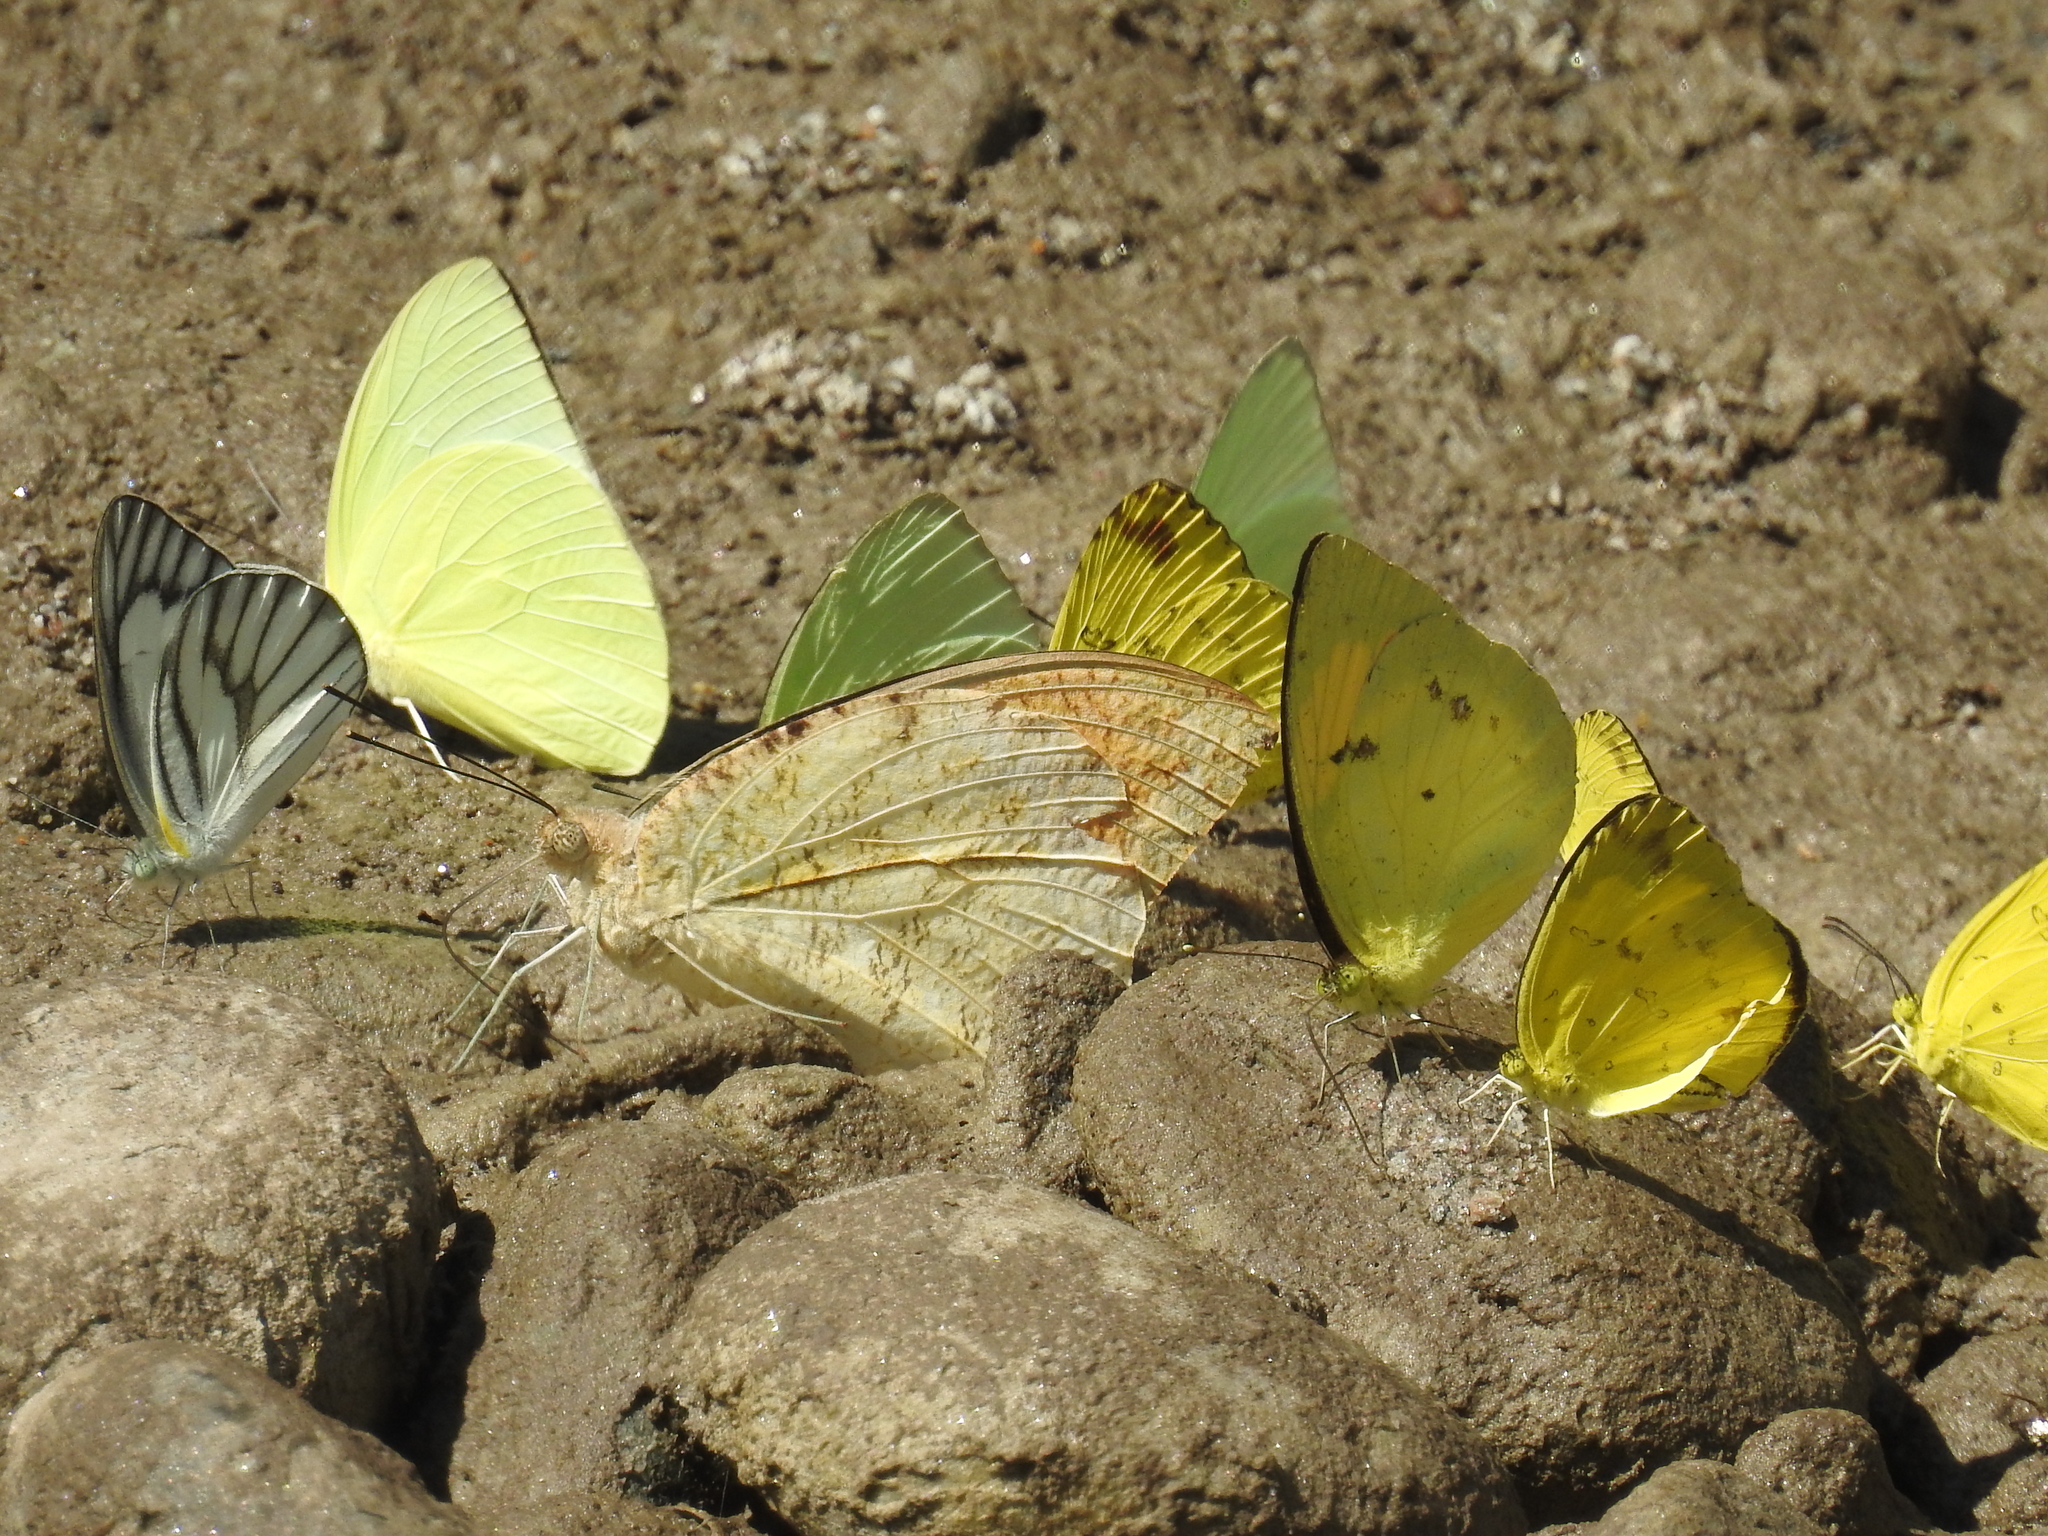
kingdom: Animalia
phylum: Arthropoda
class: Insecta
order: Lepidoptera
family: Pieridae
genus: Eurema
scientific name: Eurema hecabe
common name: Pale grass yellow
